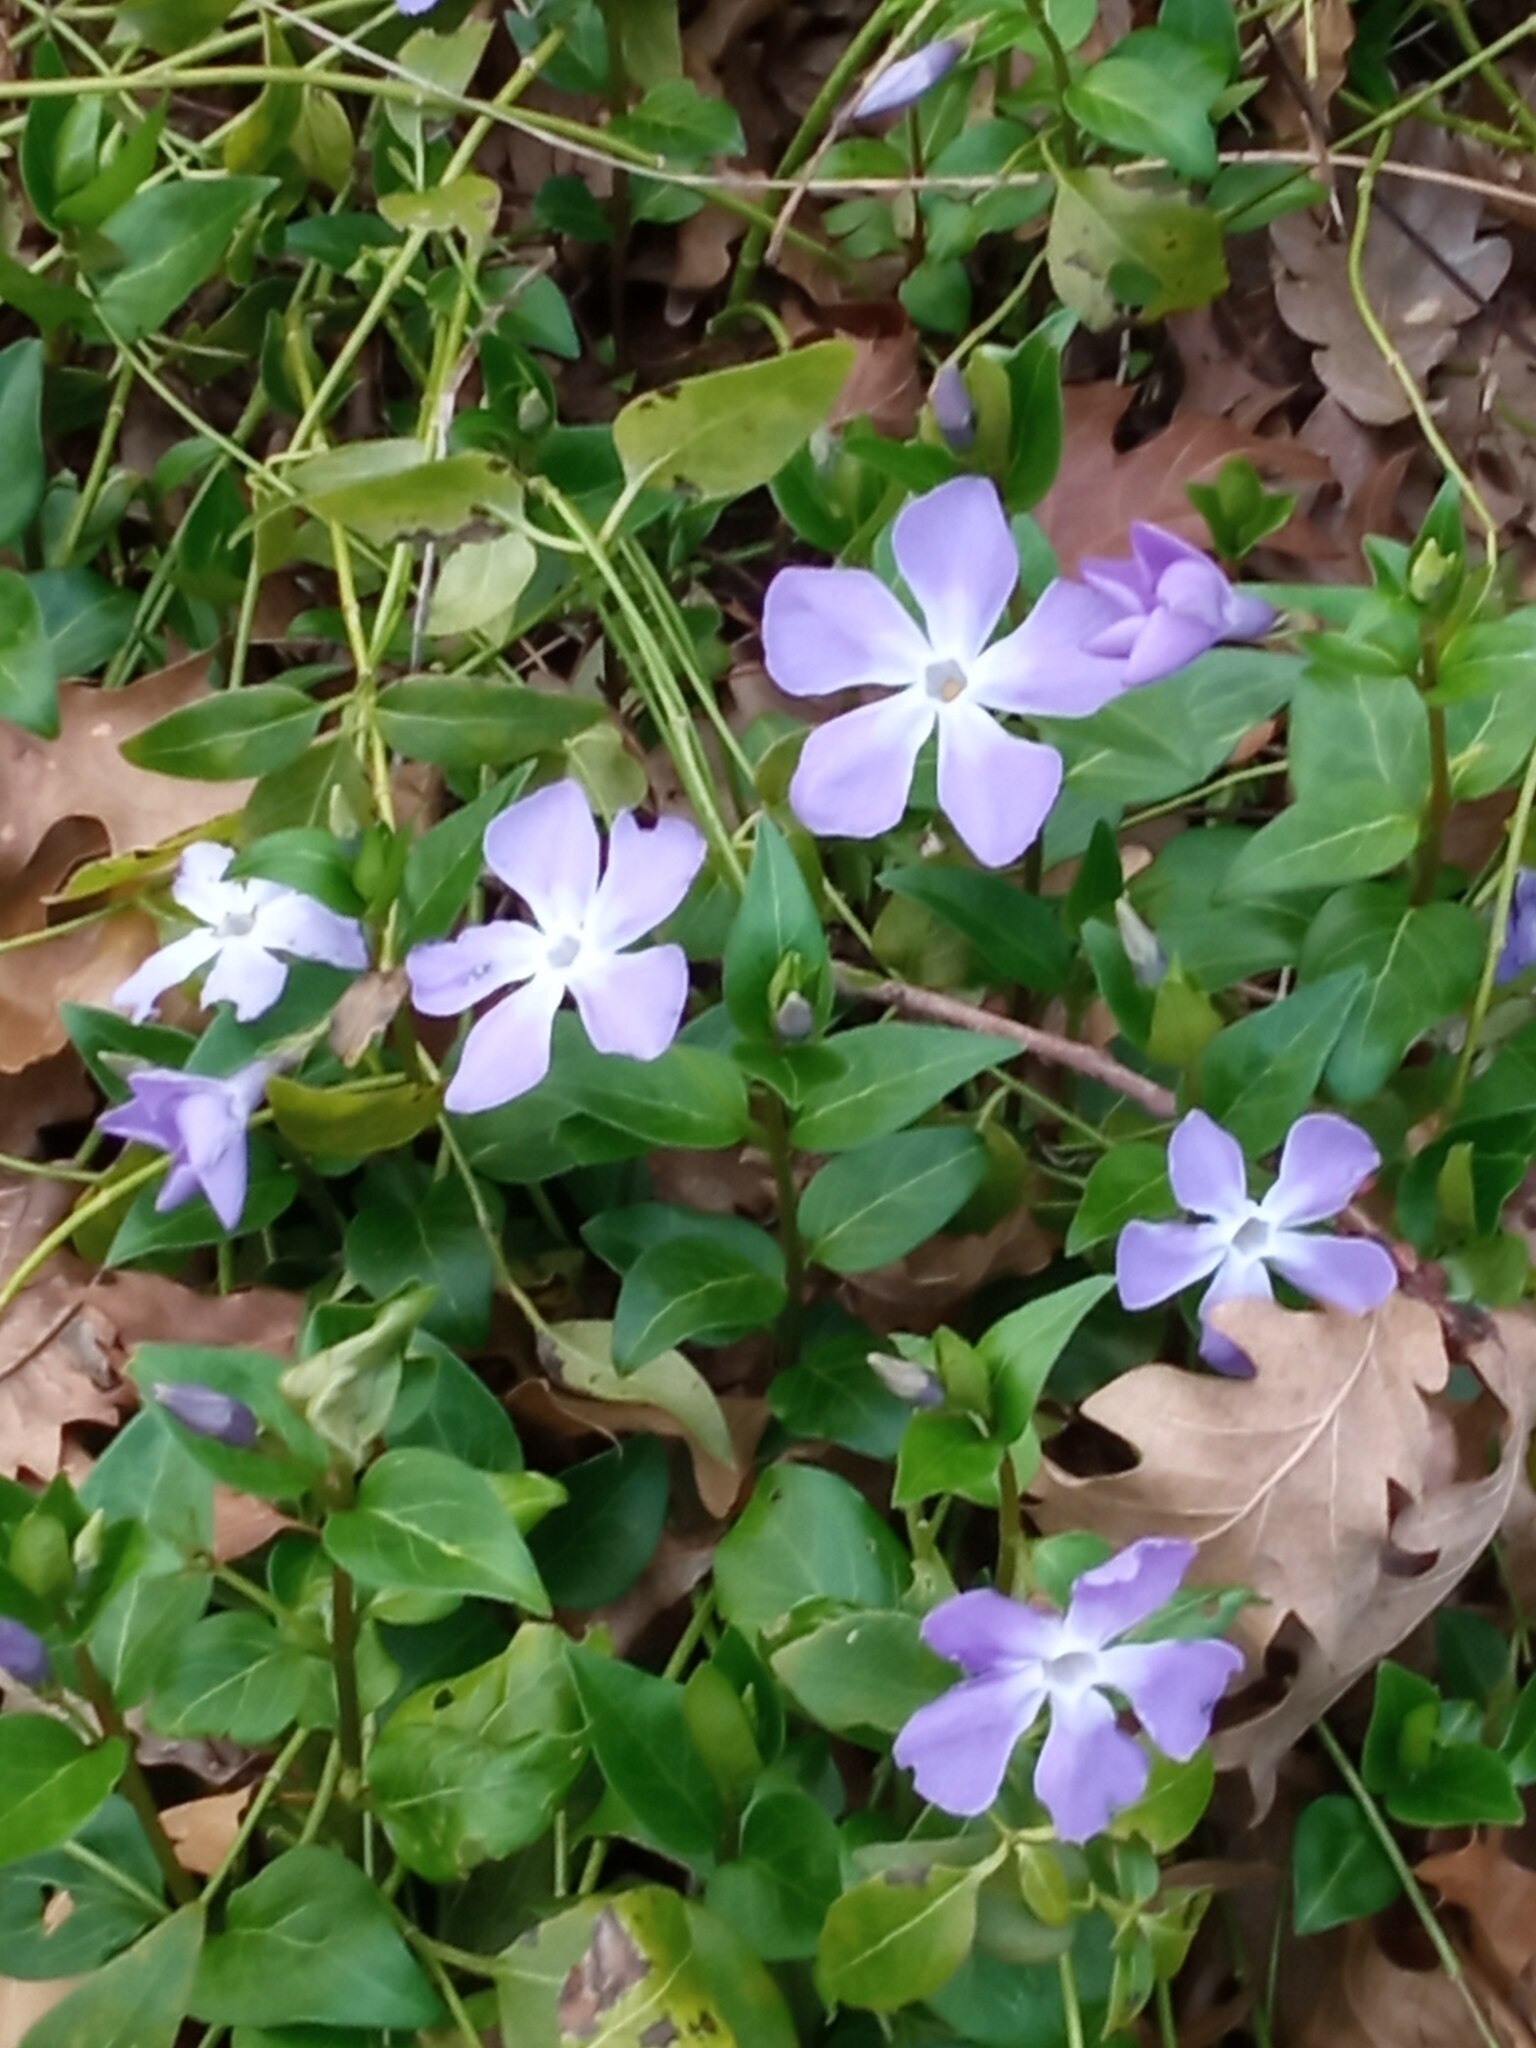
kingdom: Plantae
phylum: Tracheophyta
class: Magnoliopsida
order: Gentianales
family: Apocynaceae
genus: Vinca
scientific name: Vinca major
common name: Greater periwinkle
